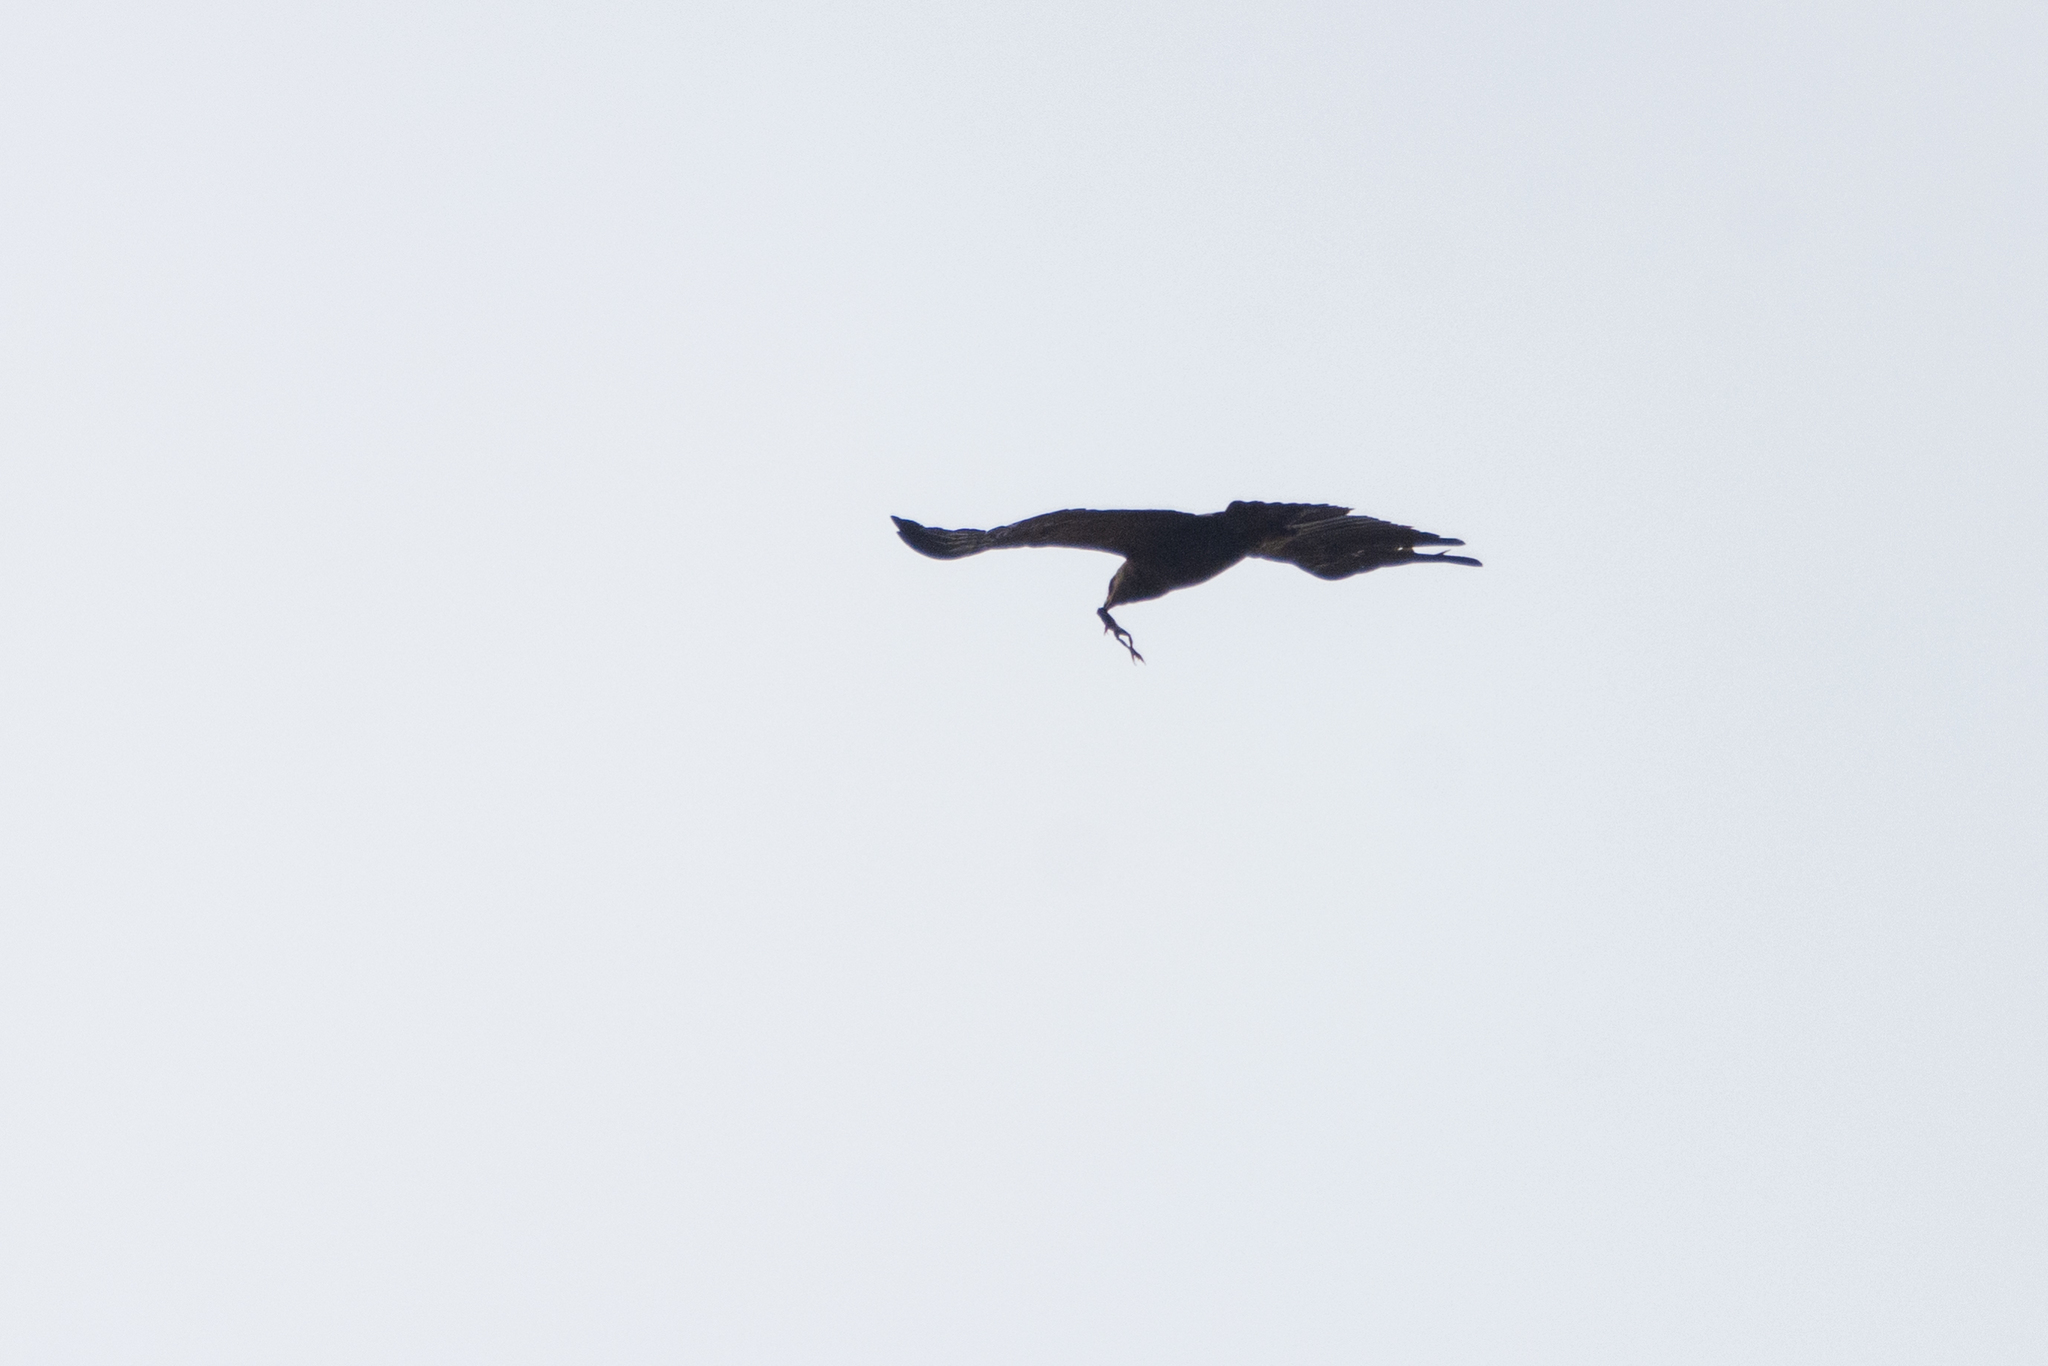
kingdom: Animalia
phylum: Chordata
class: Aves
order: Accipitriformes
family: Accipitridae
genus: Aquila
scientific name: Aquila pomarina
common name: Lesser spotted eagle
